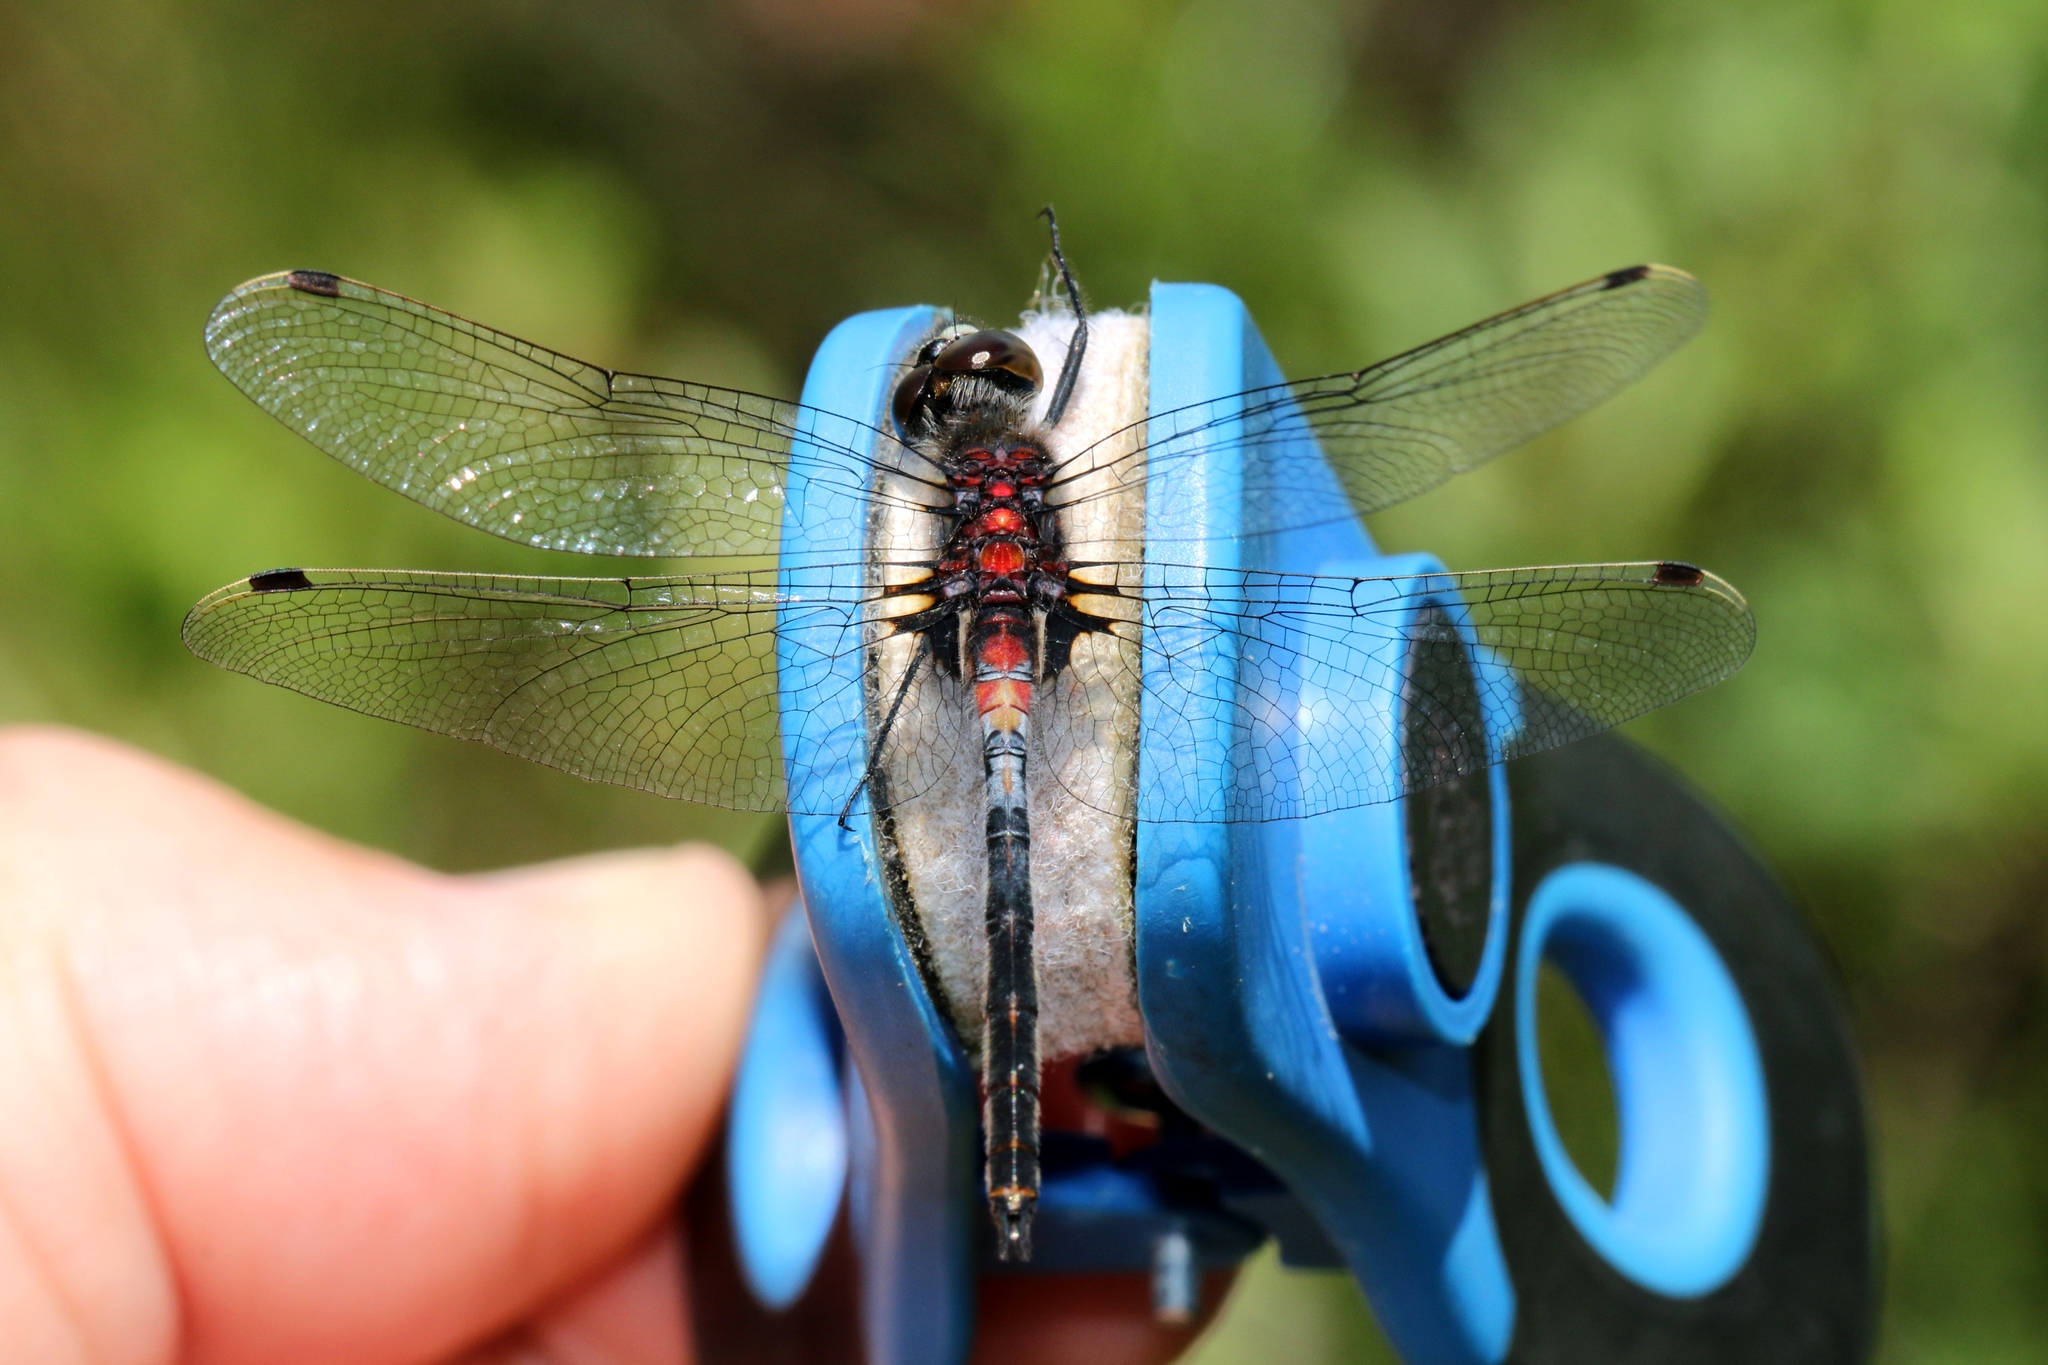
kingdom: Animalia
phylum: Arthropoda
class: Insecta
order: Odonata
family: Libellulidae
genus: Leucorrhinia
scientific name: Leucorrhinia proxima
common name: Belted whiteface
